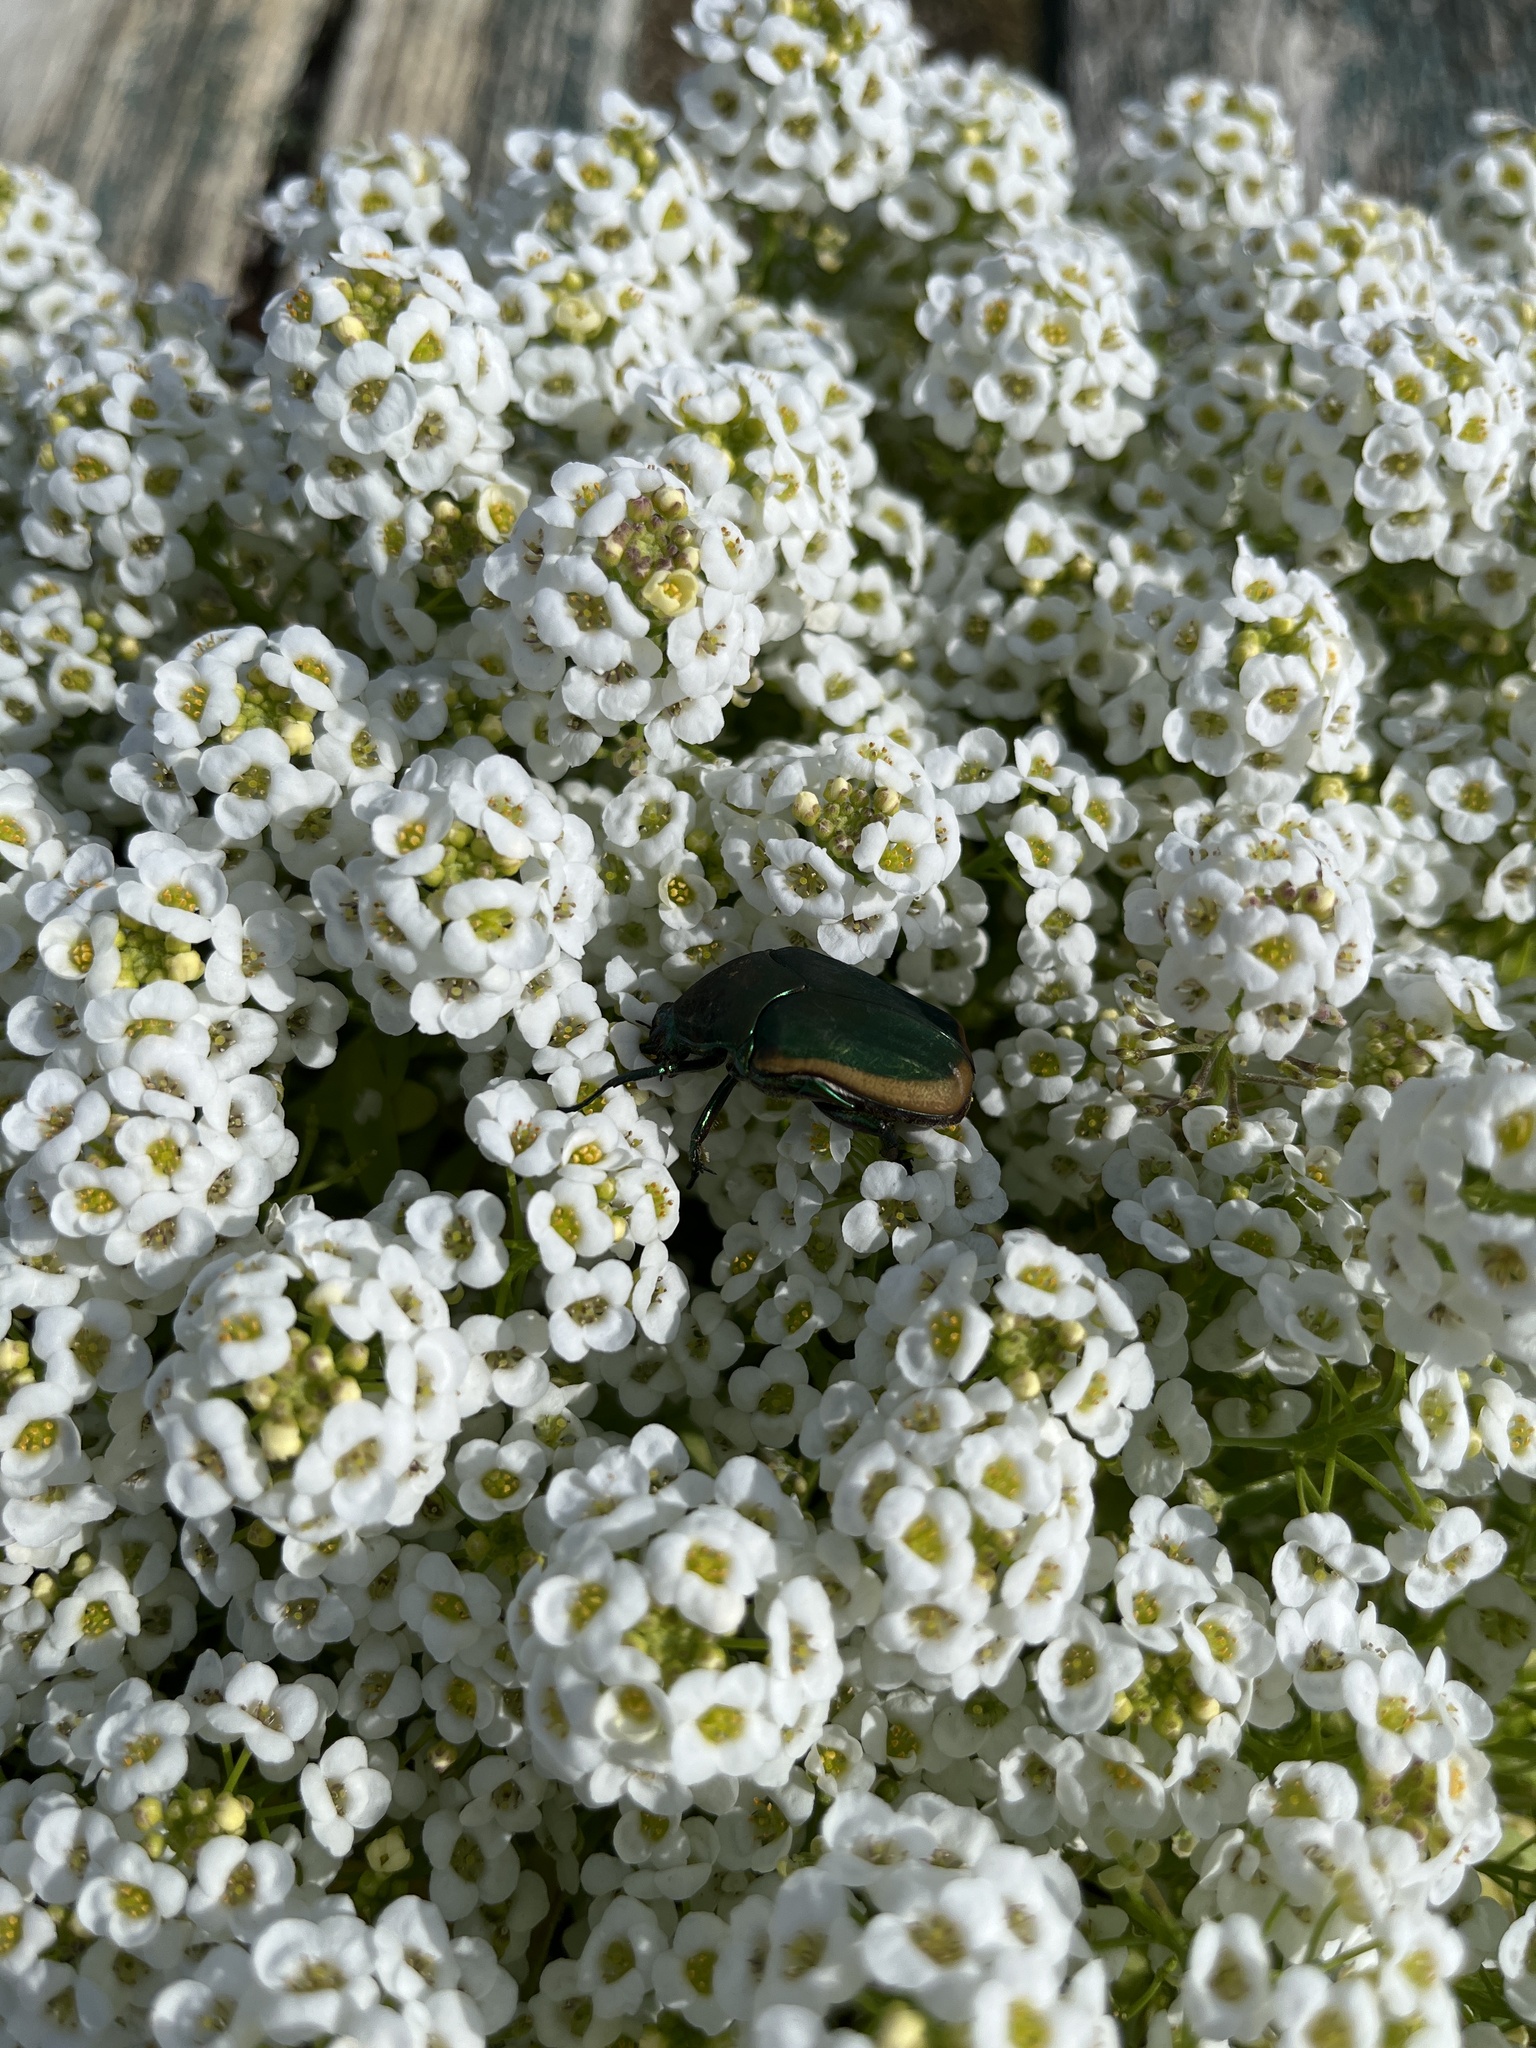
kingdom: Animalia
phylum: Arthropoda
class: Insecta
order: Coleoptera
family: Scarabaeidae
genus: Cotinis
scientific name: Cotinis mutabilis
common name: Figeater beetle
